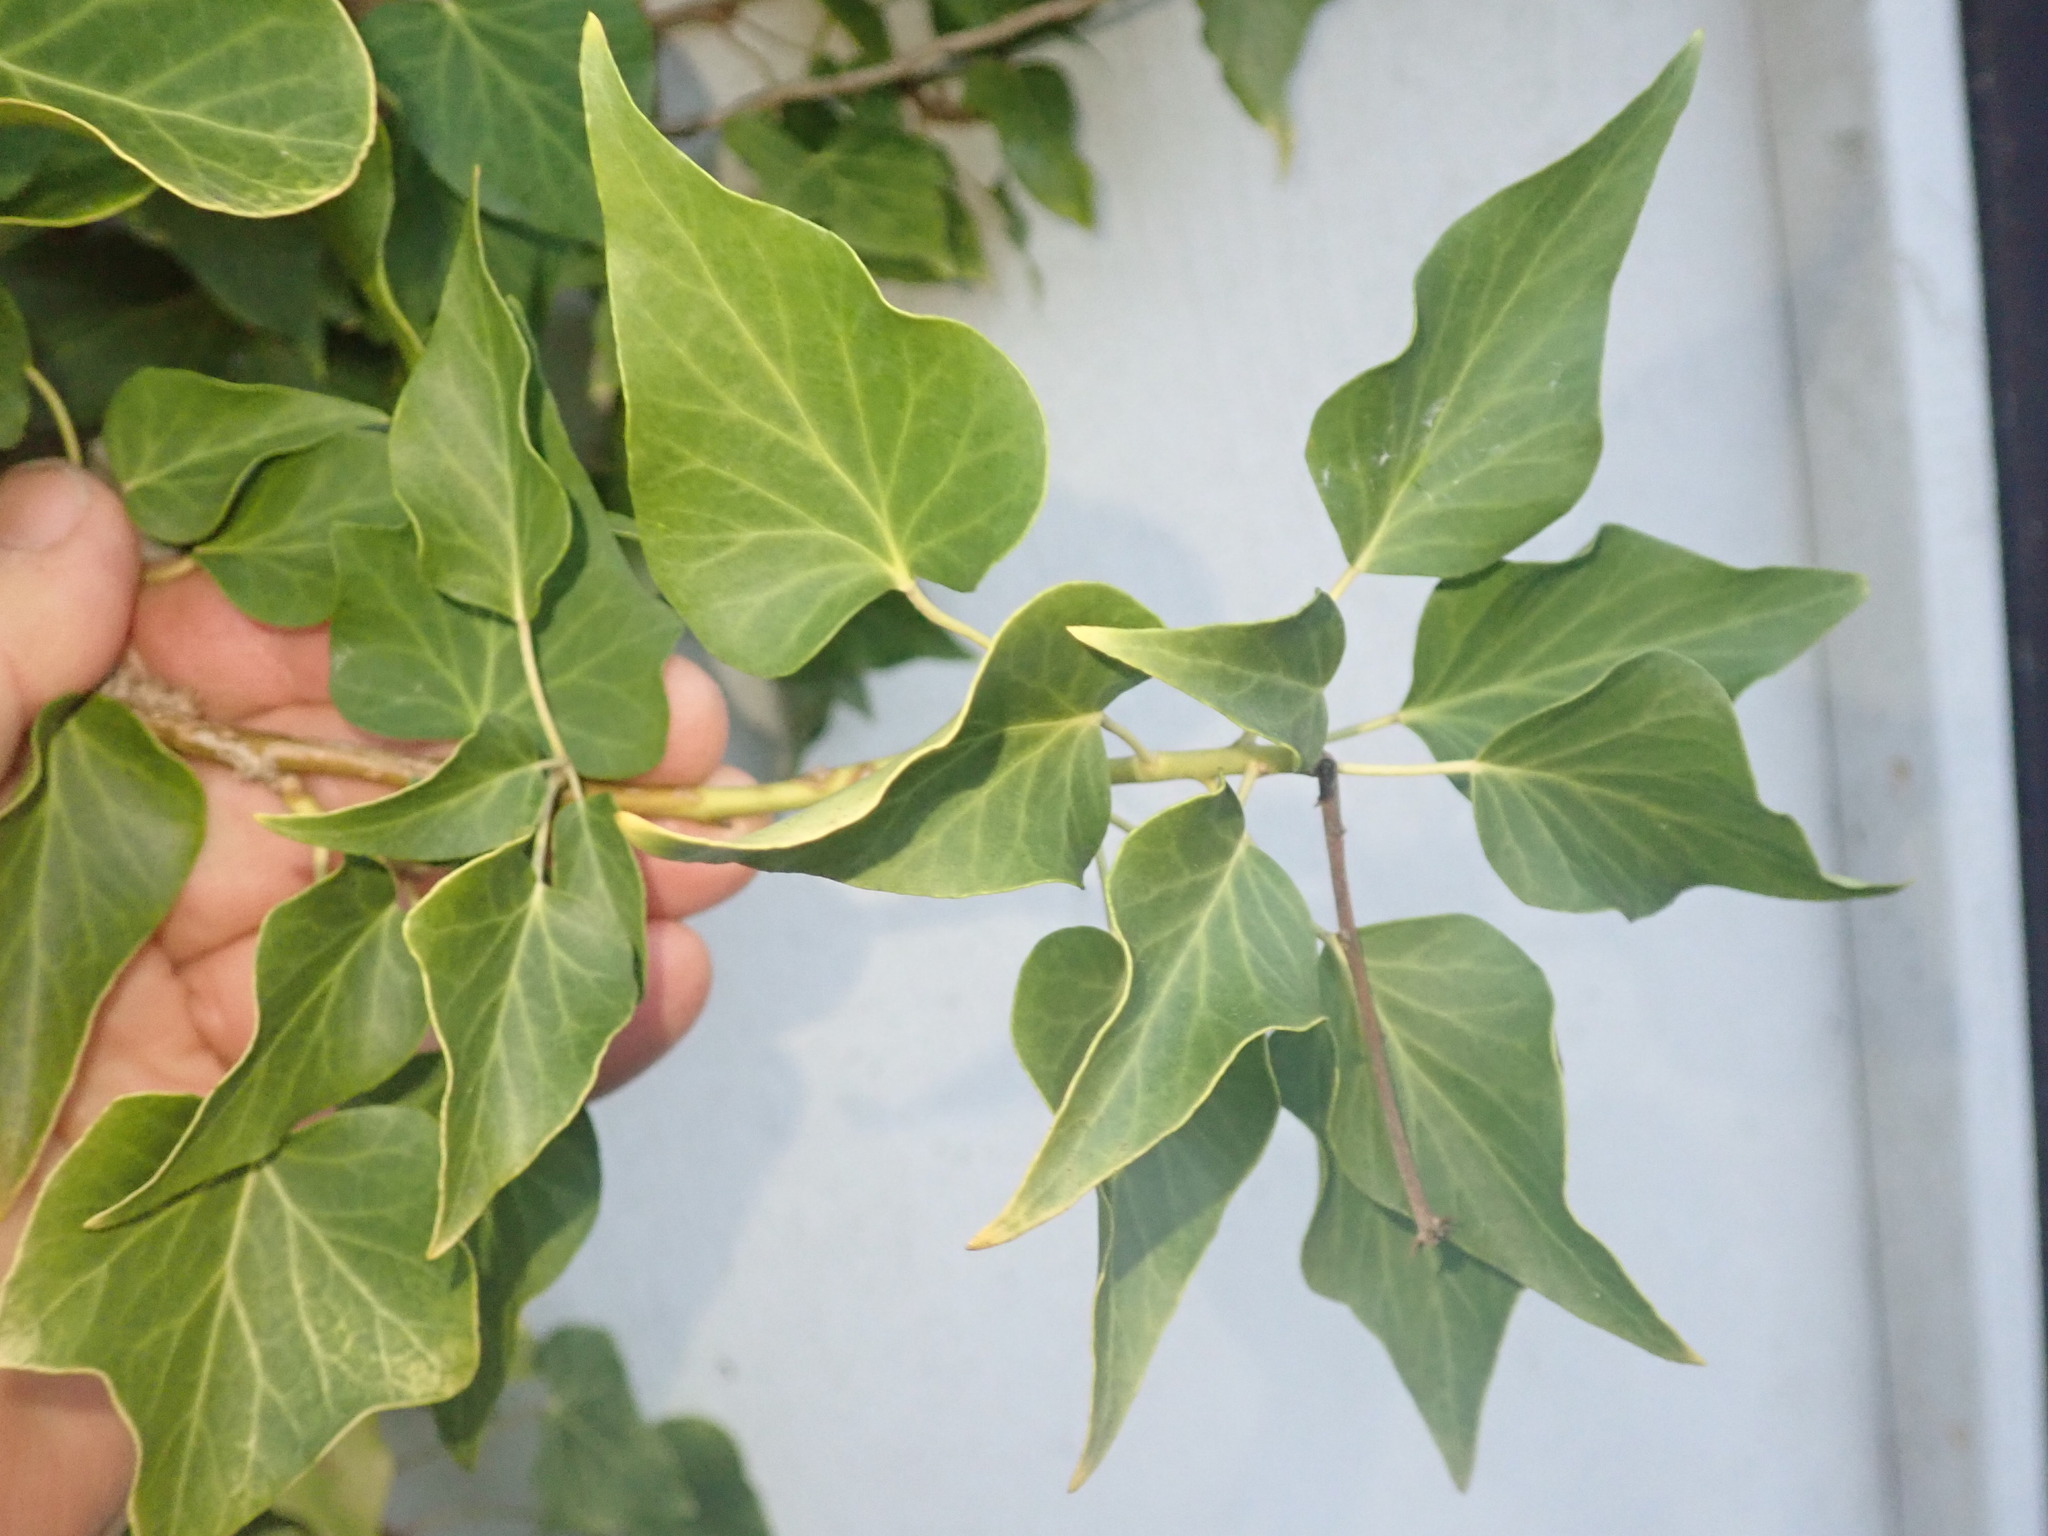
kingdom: Plantae
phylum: Tracheophyta
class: Magnoliopsida
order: Apiales
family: Araliaceae
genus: Hedera
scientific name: Hedera helix
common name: Ivy
